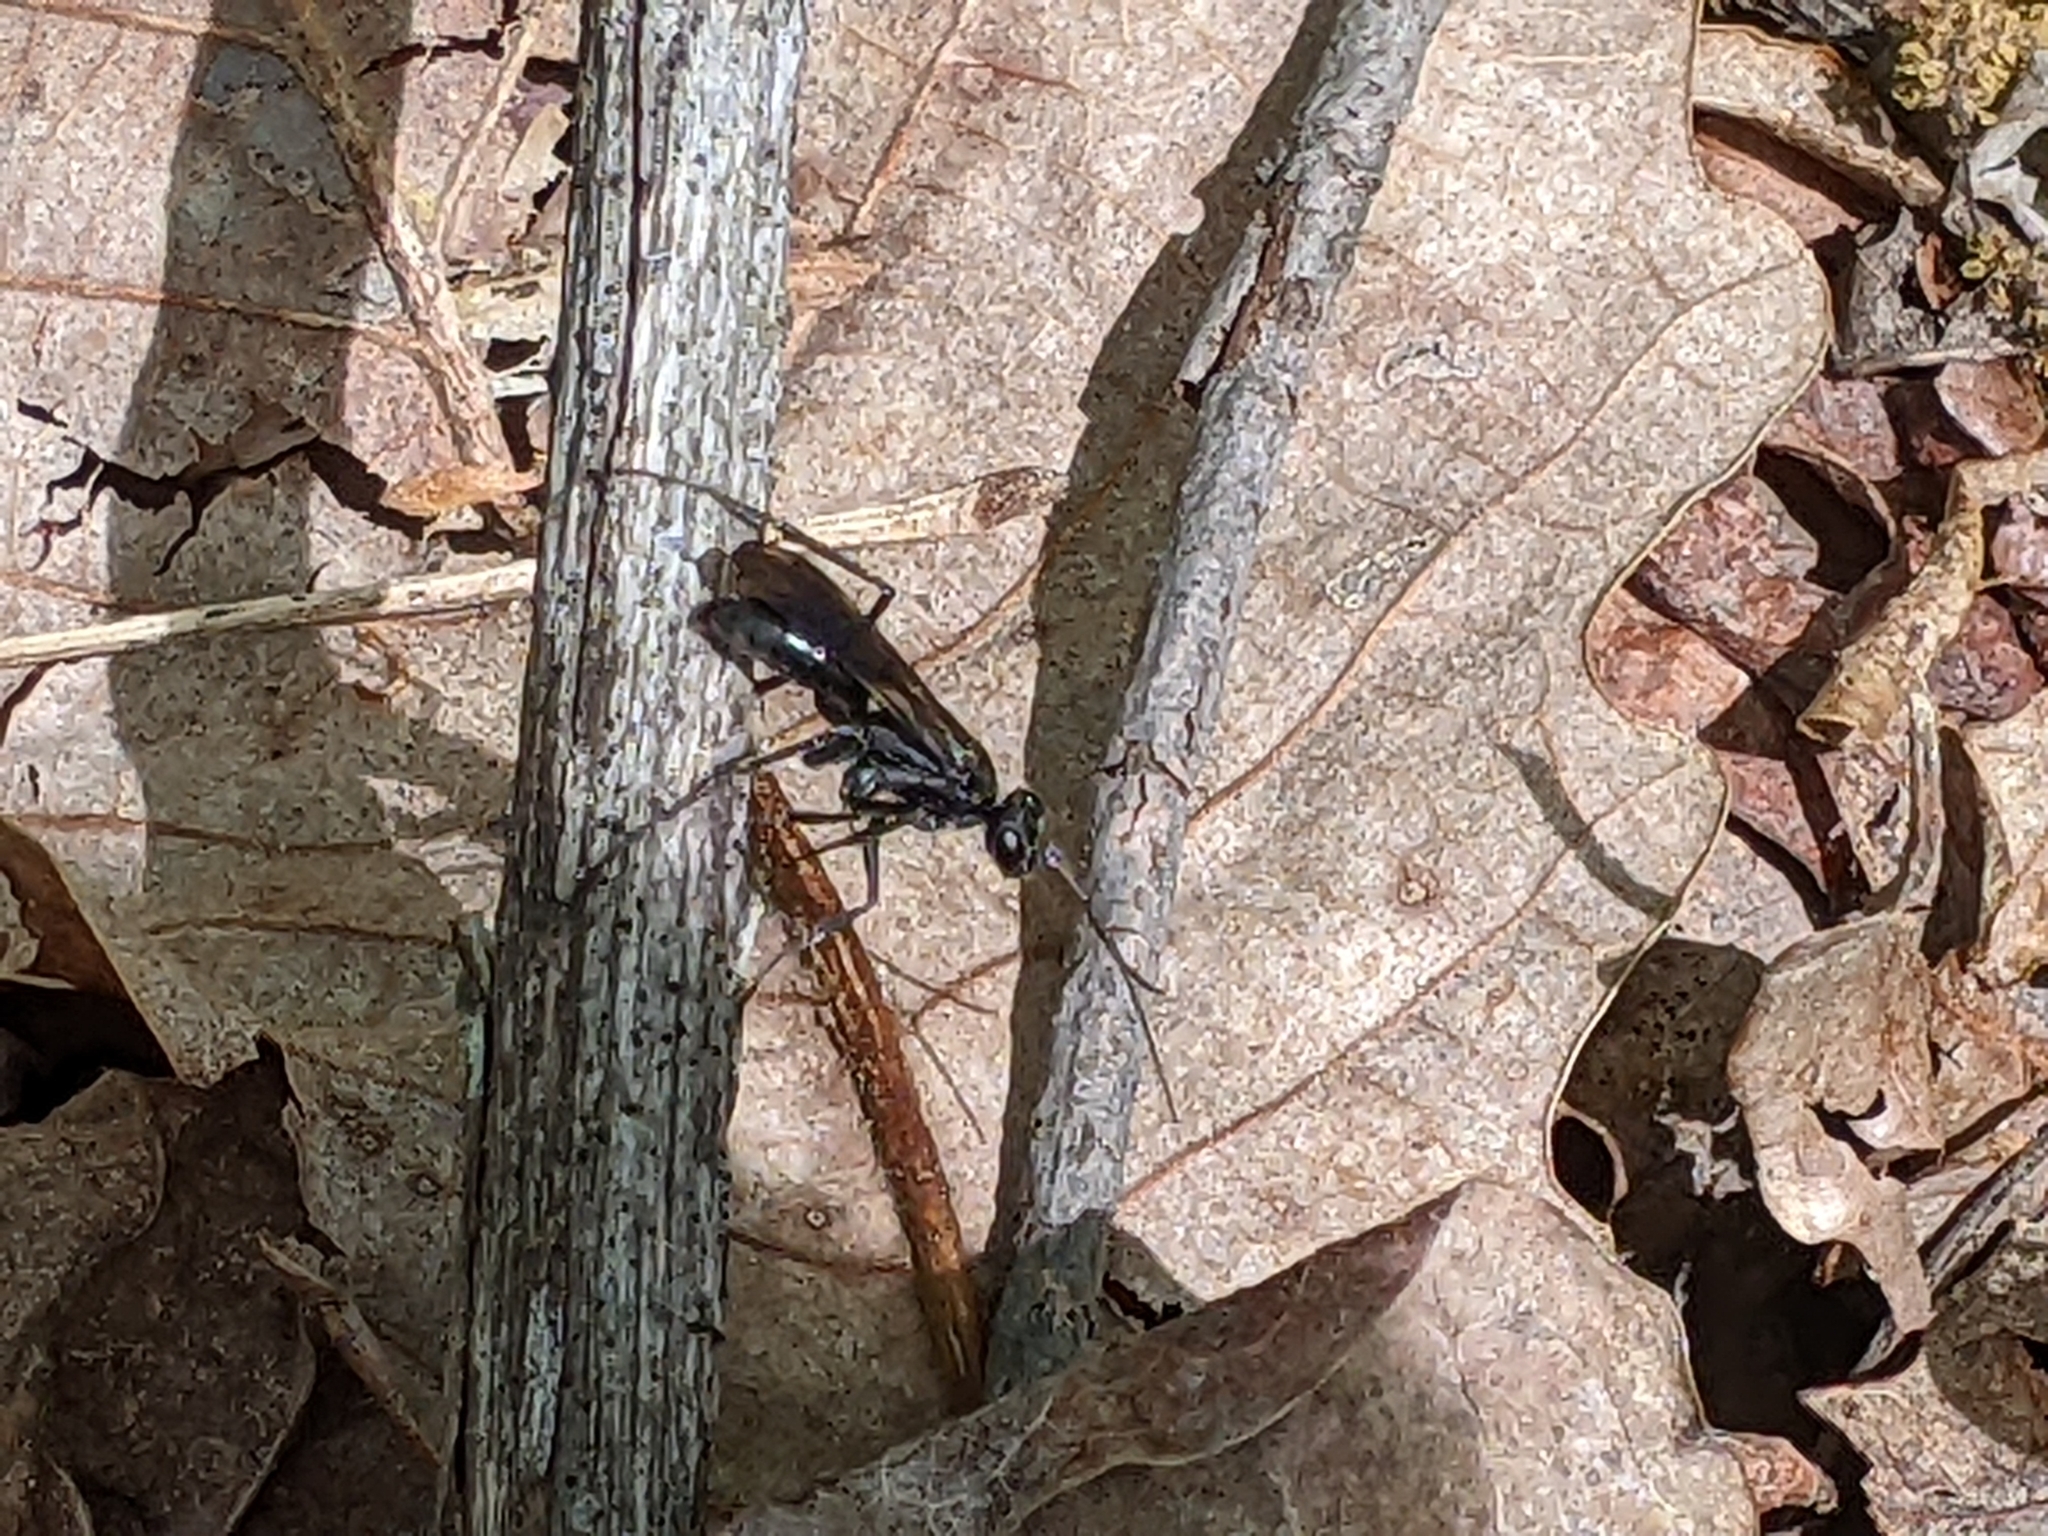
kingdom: Animalia
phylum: Arthropoda
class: Insecta
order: Hymenoptera
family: Pompilidae
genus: Priocnemis
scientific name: Priocnemis minorata
